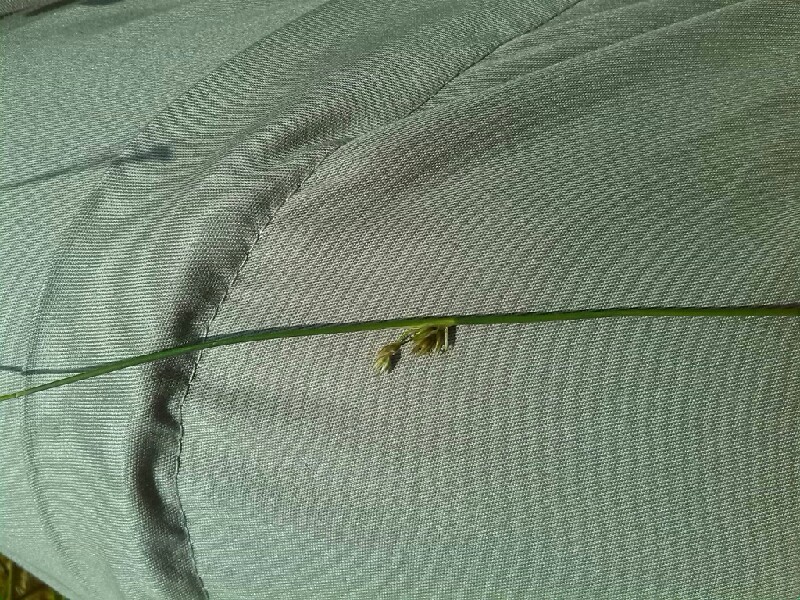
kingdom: Plantae
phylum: Tracheophyta
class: Liliopsida
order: Poales
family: Juncaceae
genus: Juncus
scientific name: Juncus filiformis
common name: Thread rush
